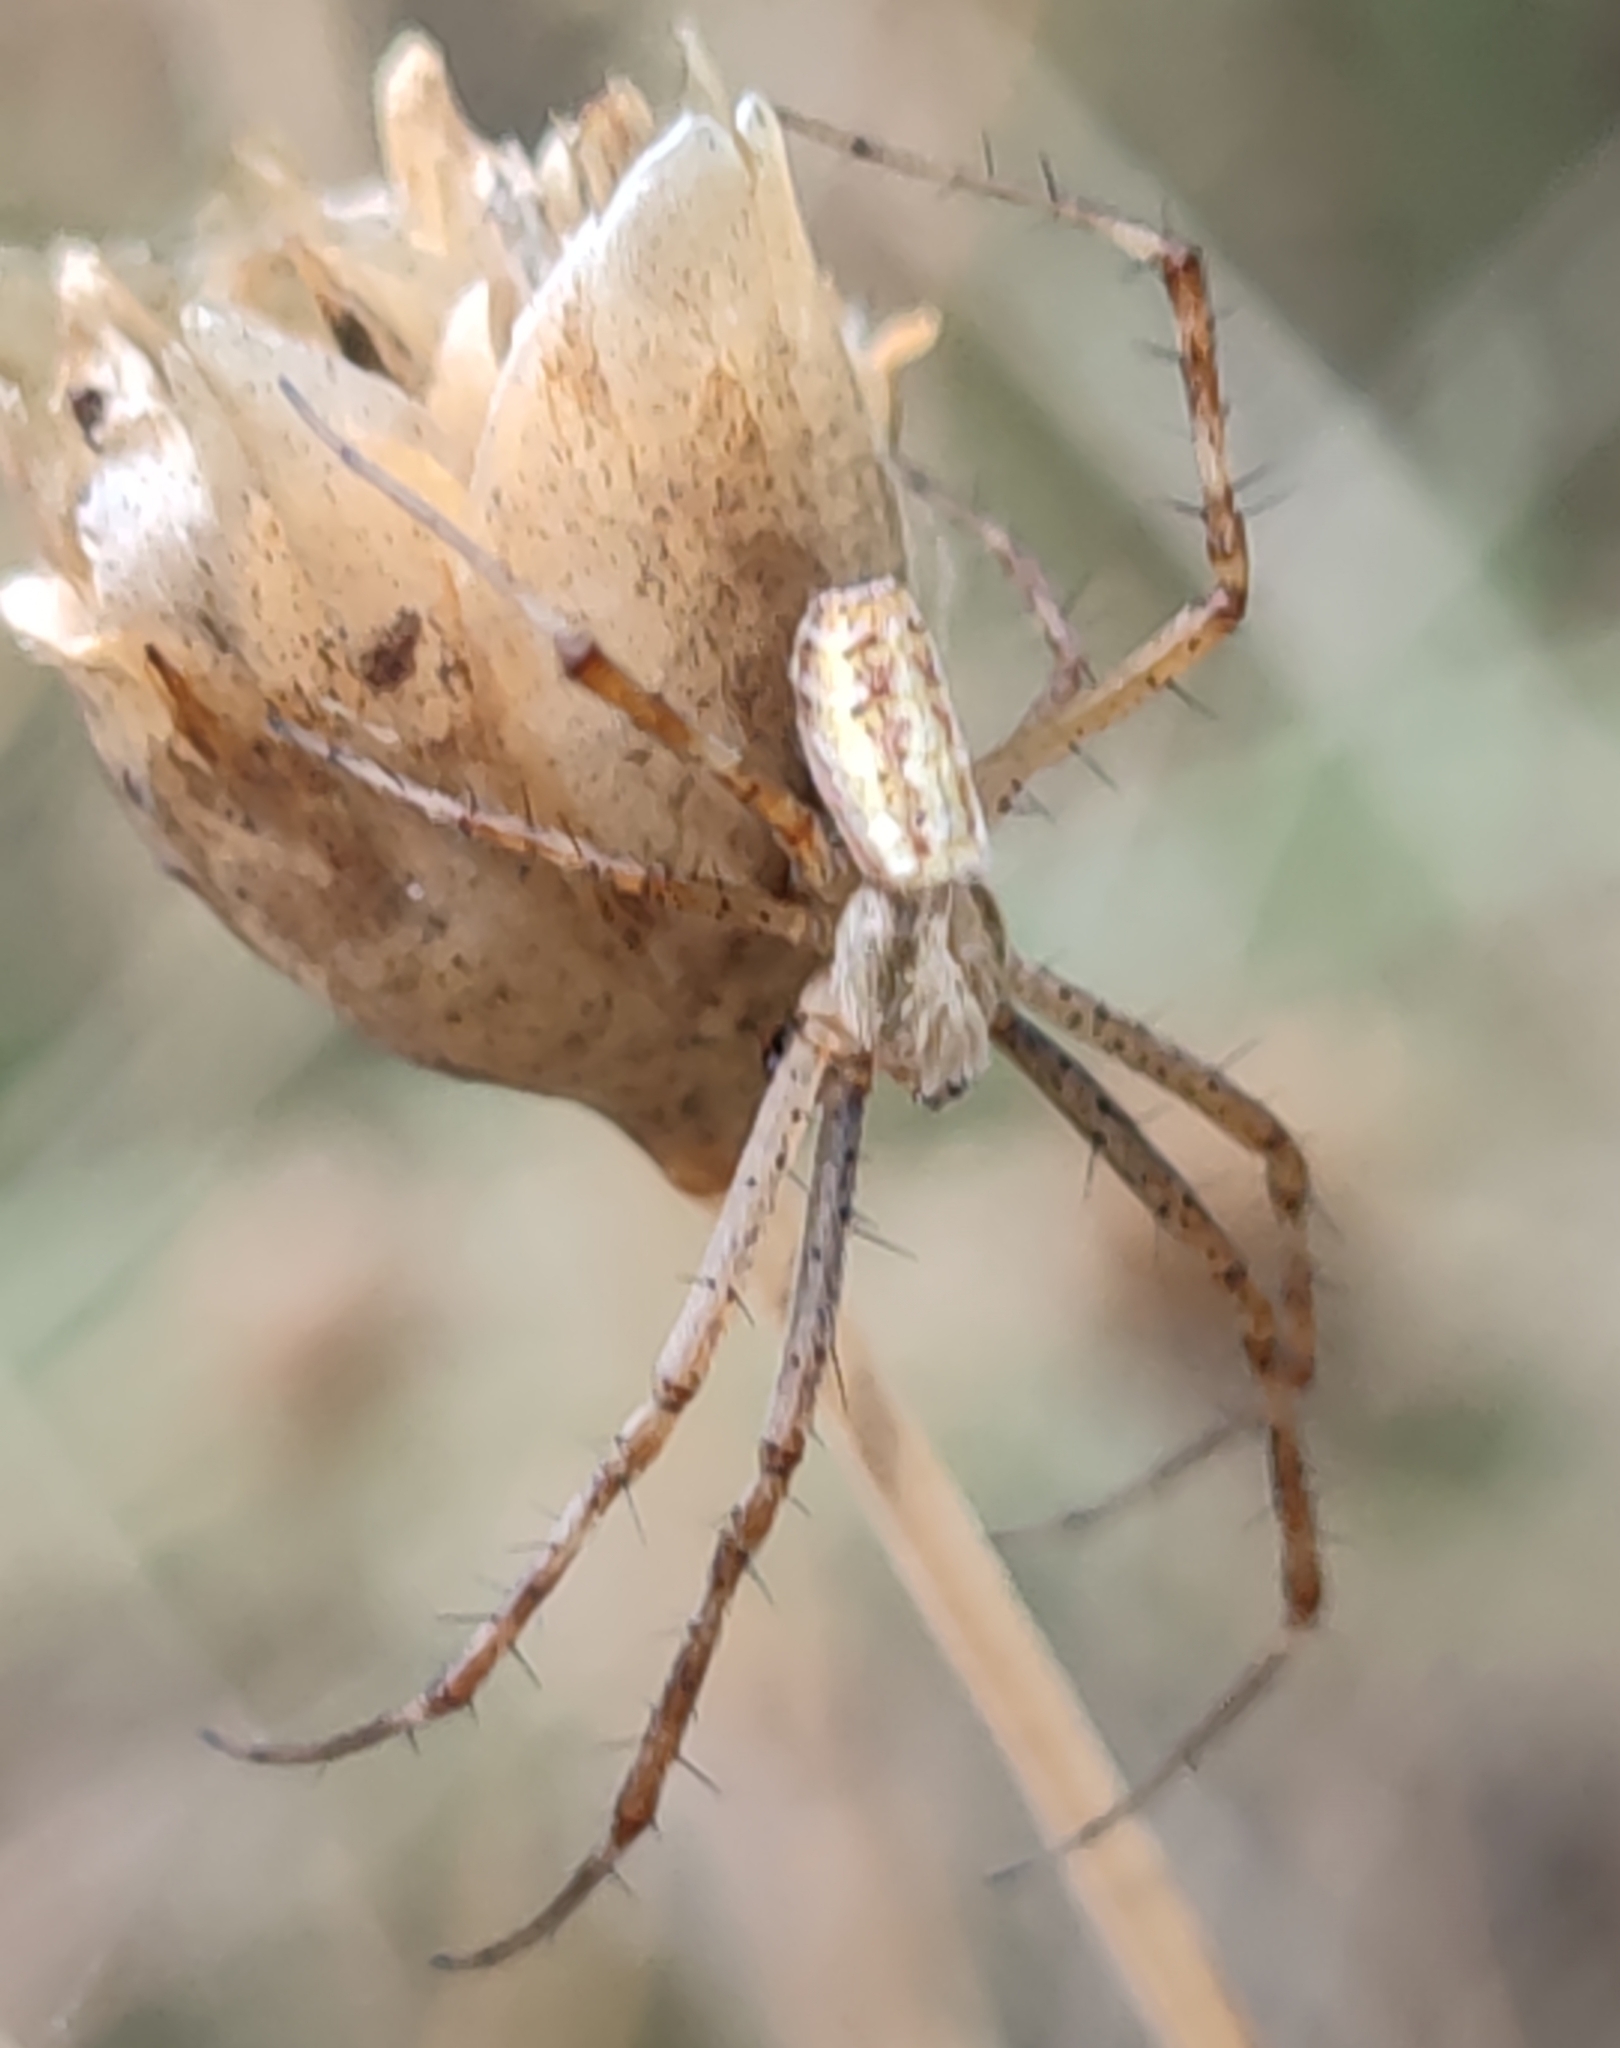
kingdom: Animalia
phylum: Arthropoda
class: Arachnida
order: Araneae
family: Araneidae
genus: Argiope
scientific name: Argiope bruennichi
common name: Wasp spider
